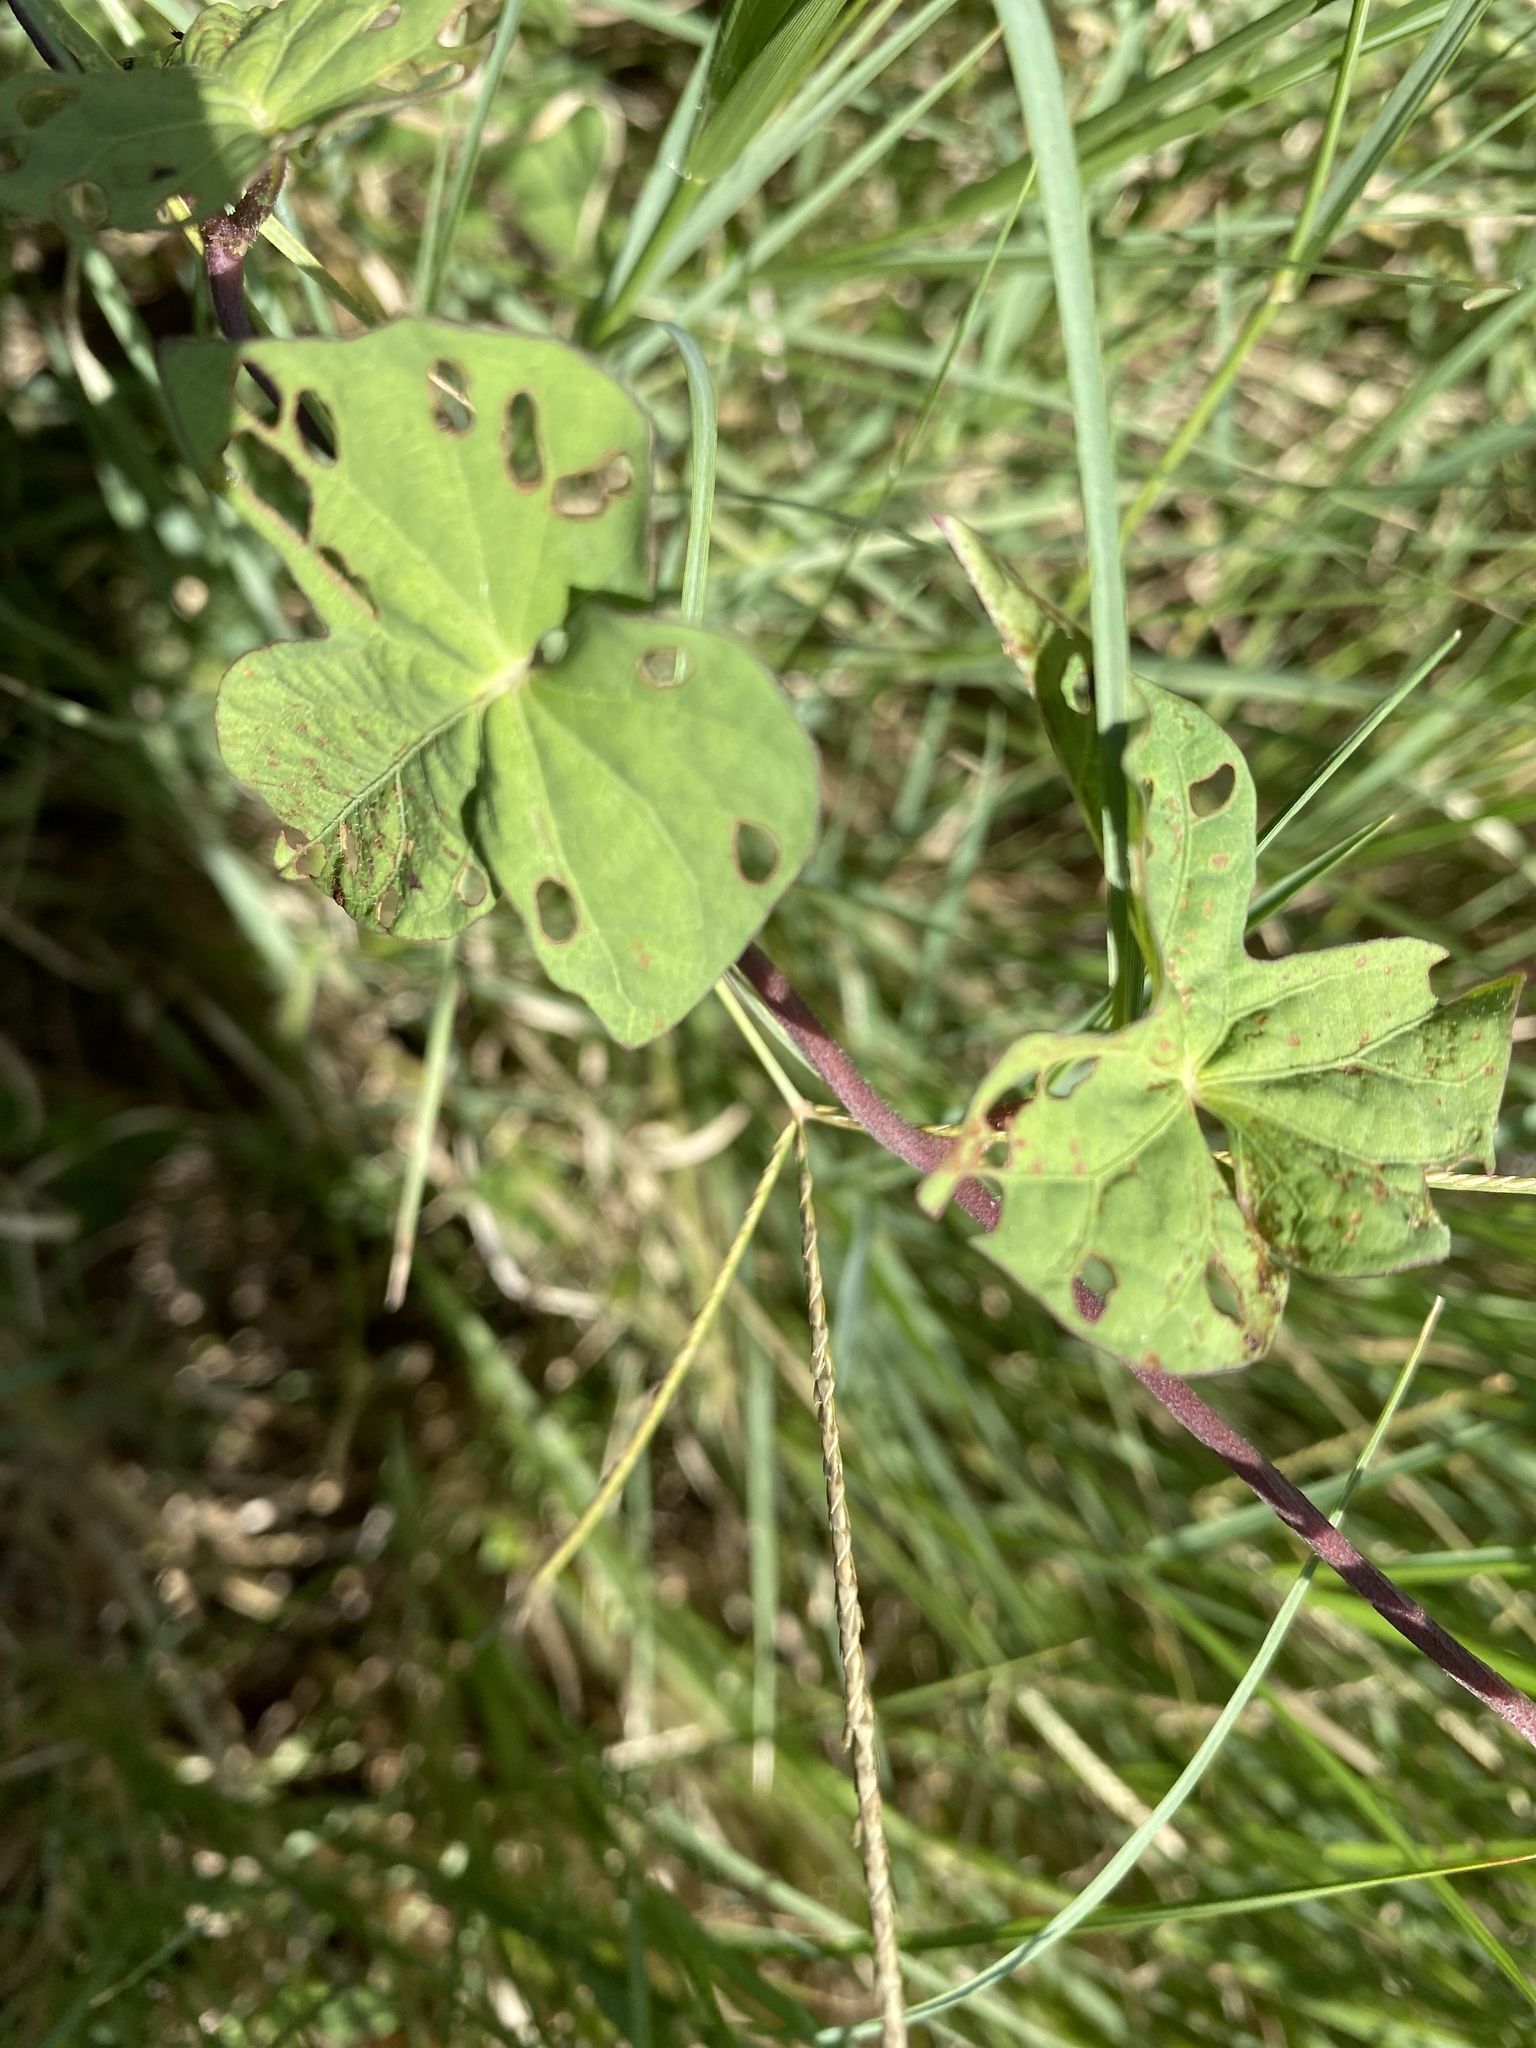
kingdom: Plantae
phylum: Tracheophyta
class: Magnoliopsida
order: Solanales
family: Convolvulaceae
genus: Ipomoea
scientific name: Ipomoea cordatotriloba
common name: Cotton morning glory
